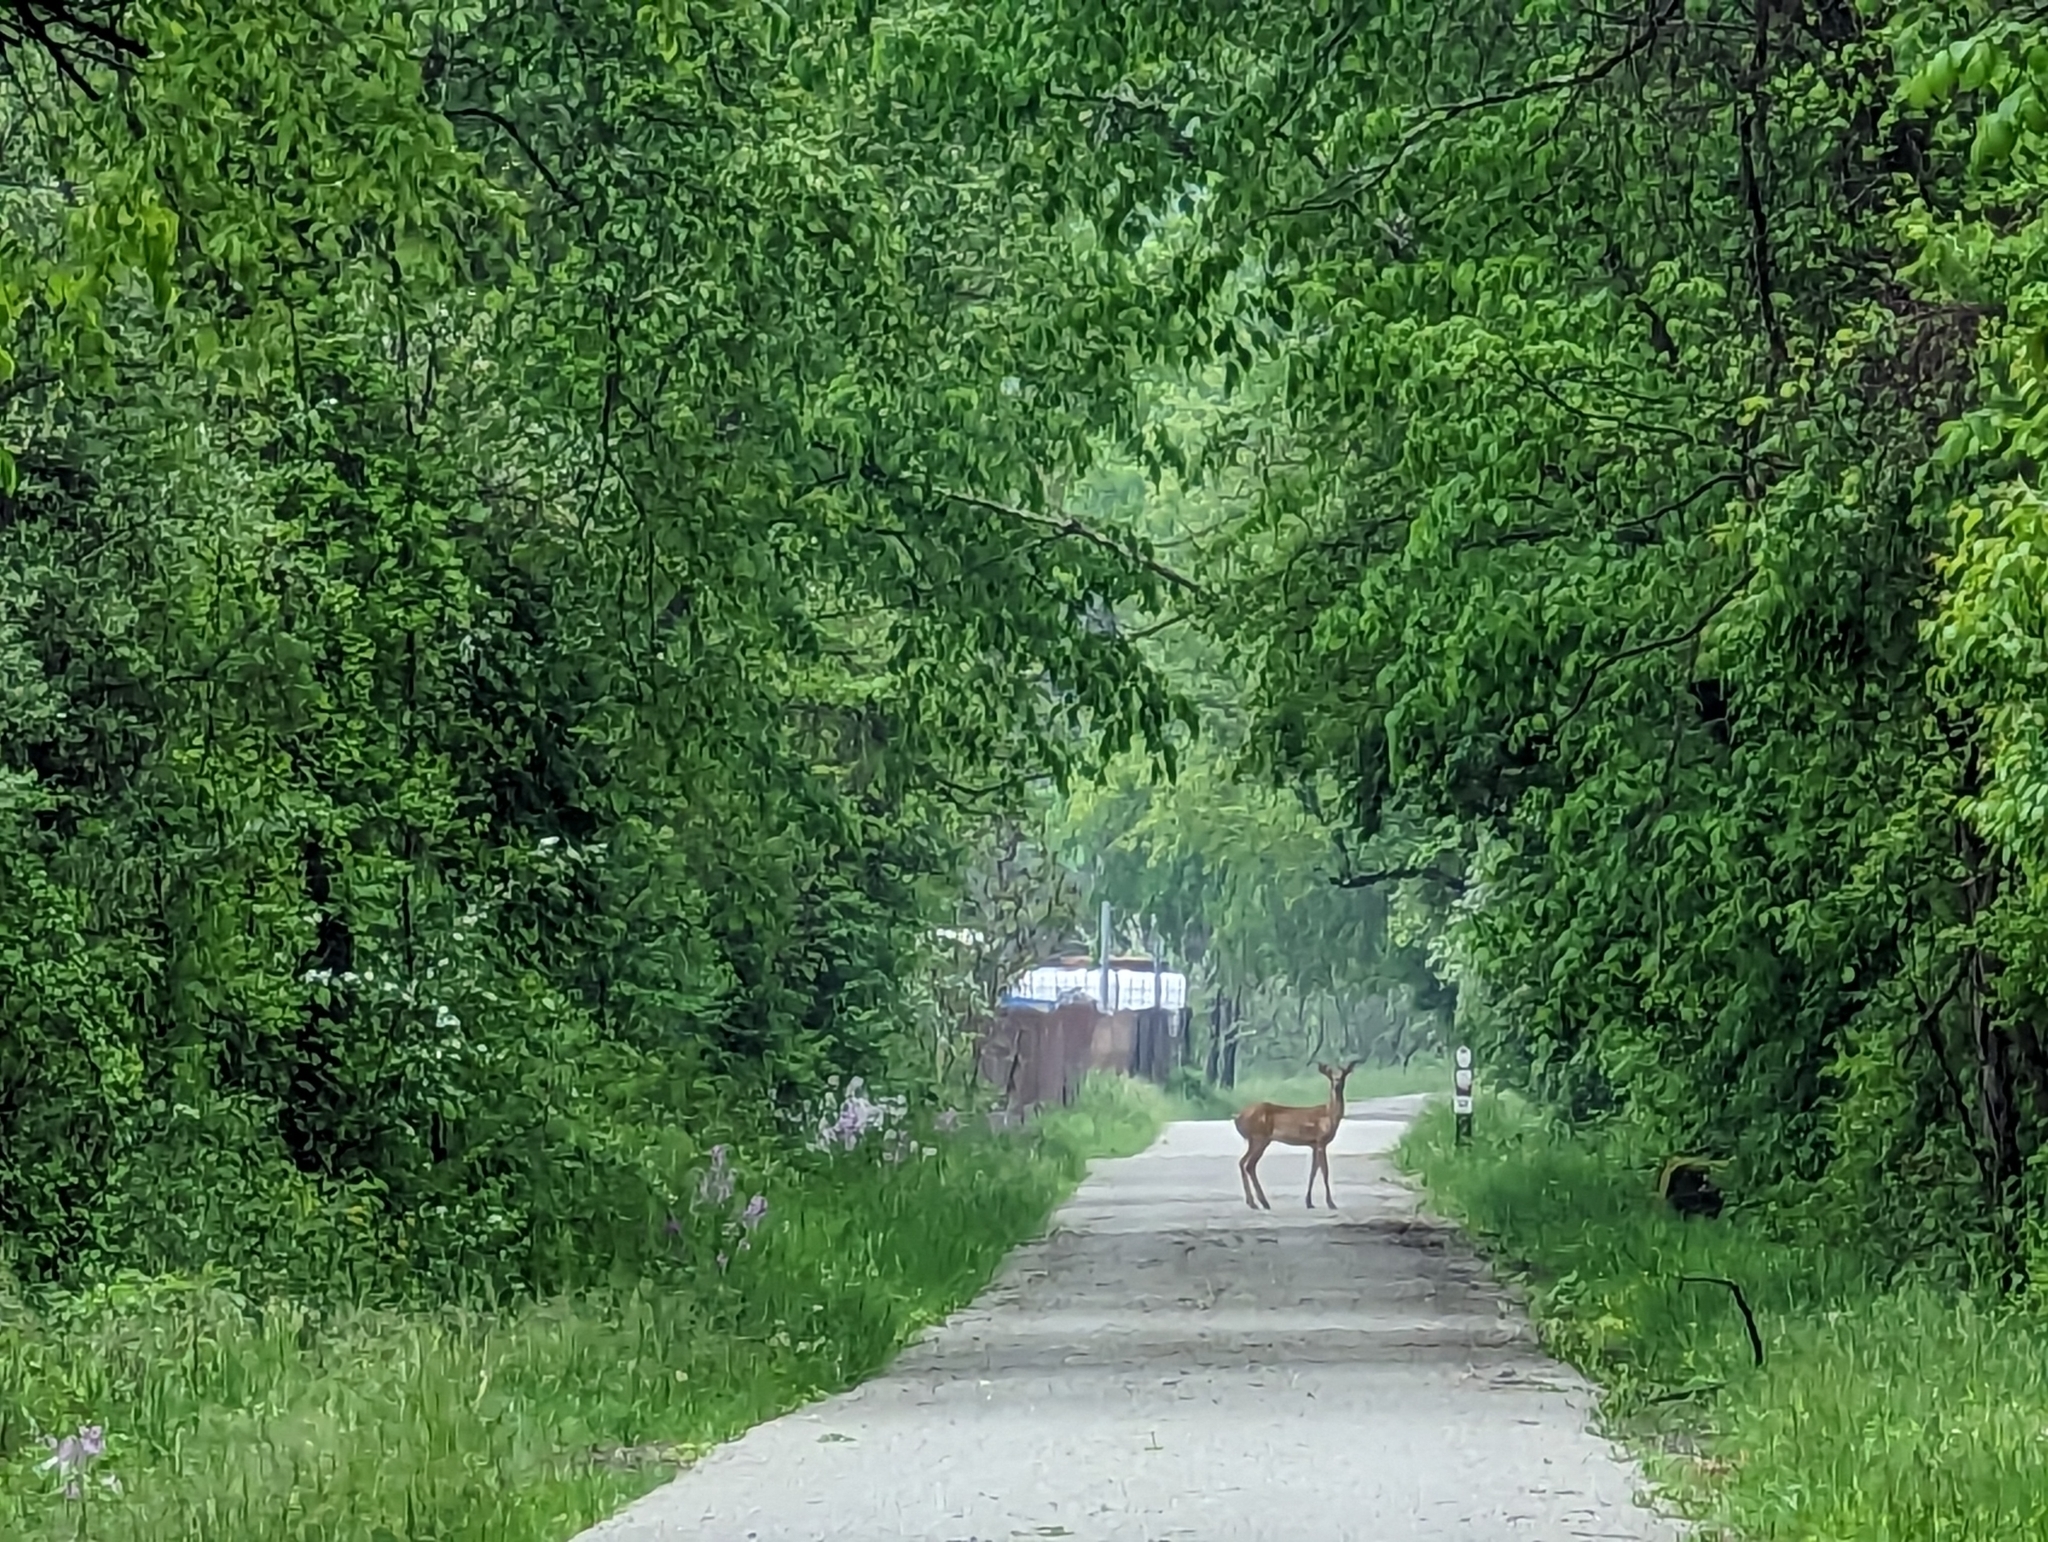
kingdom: Animalia
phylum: Chordata
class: Mammalia
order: Artiodactyla
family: Cervidae
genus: Odocoileus
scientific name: Odocoileus virginianus
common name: White-tailed deer
